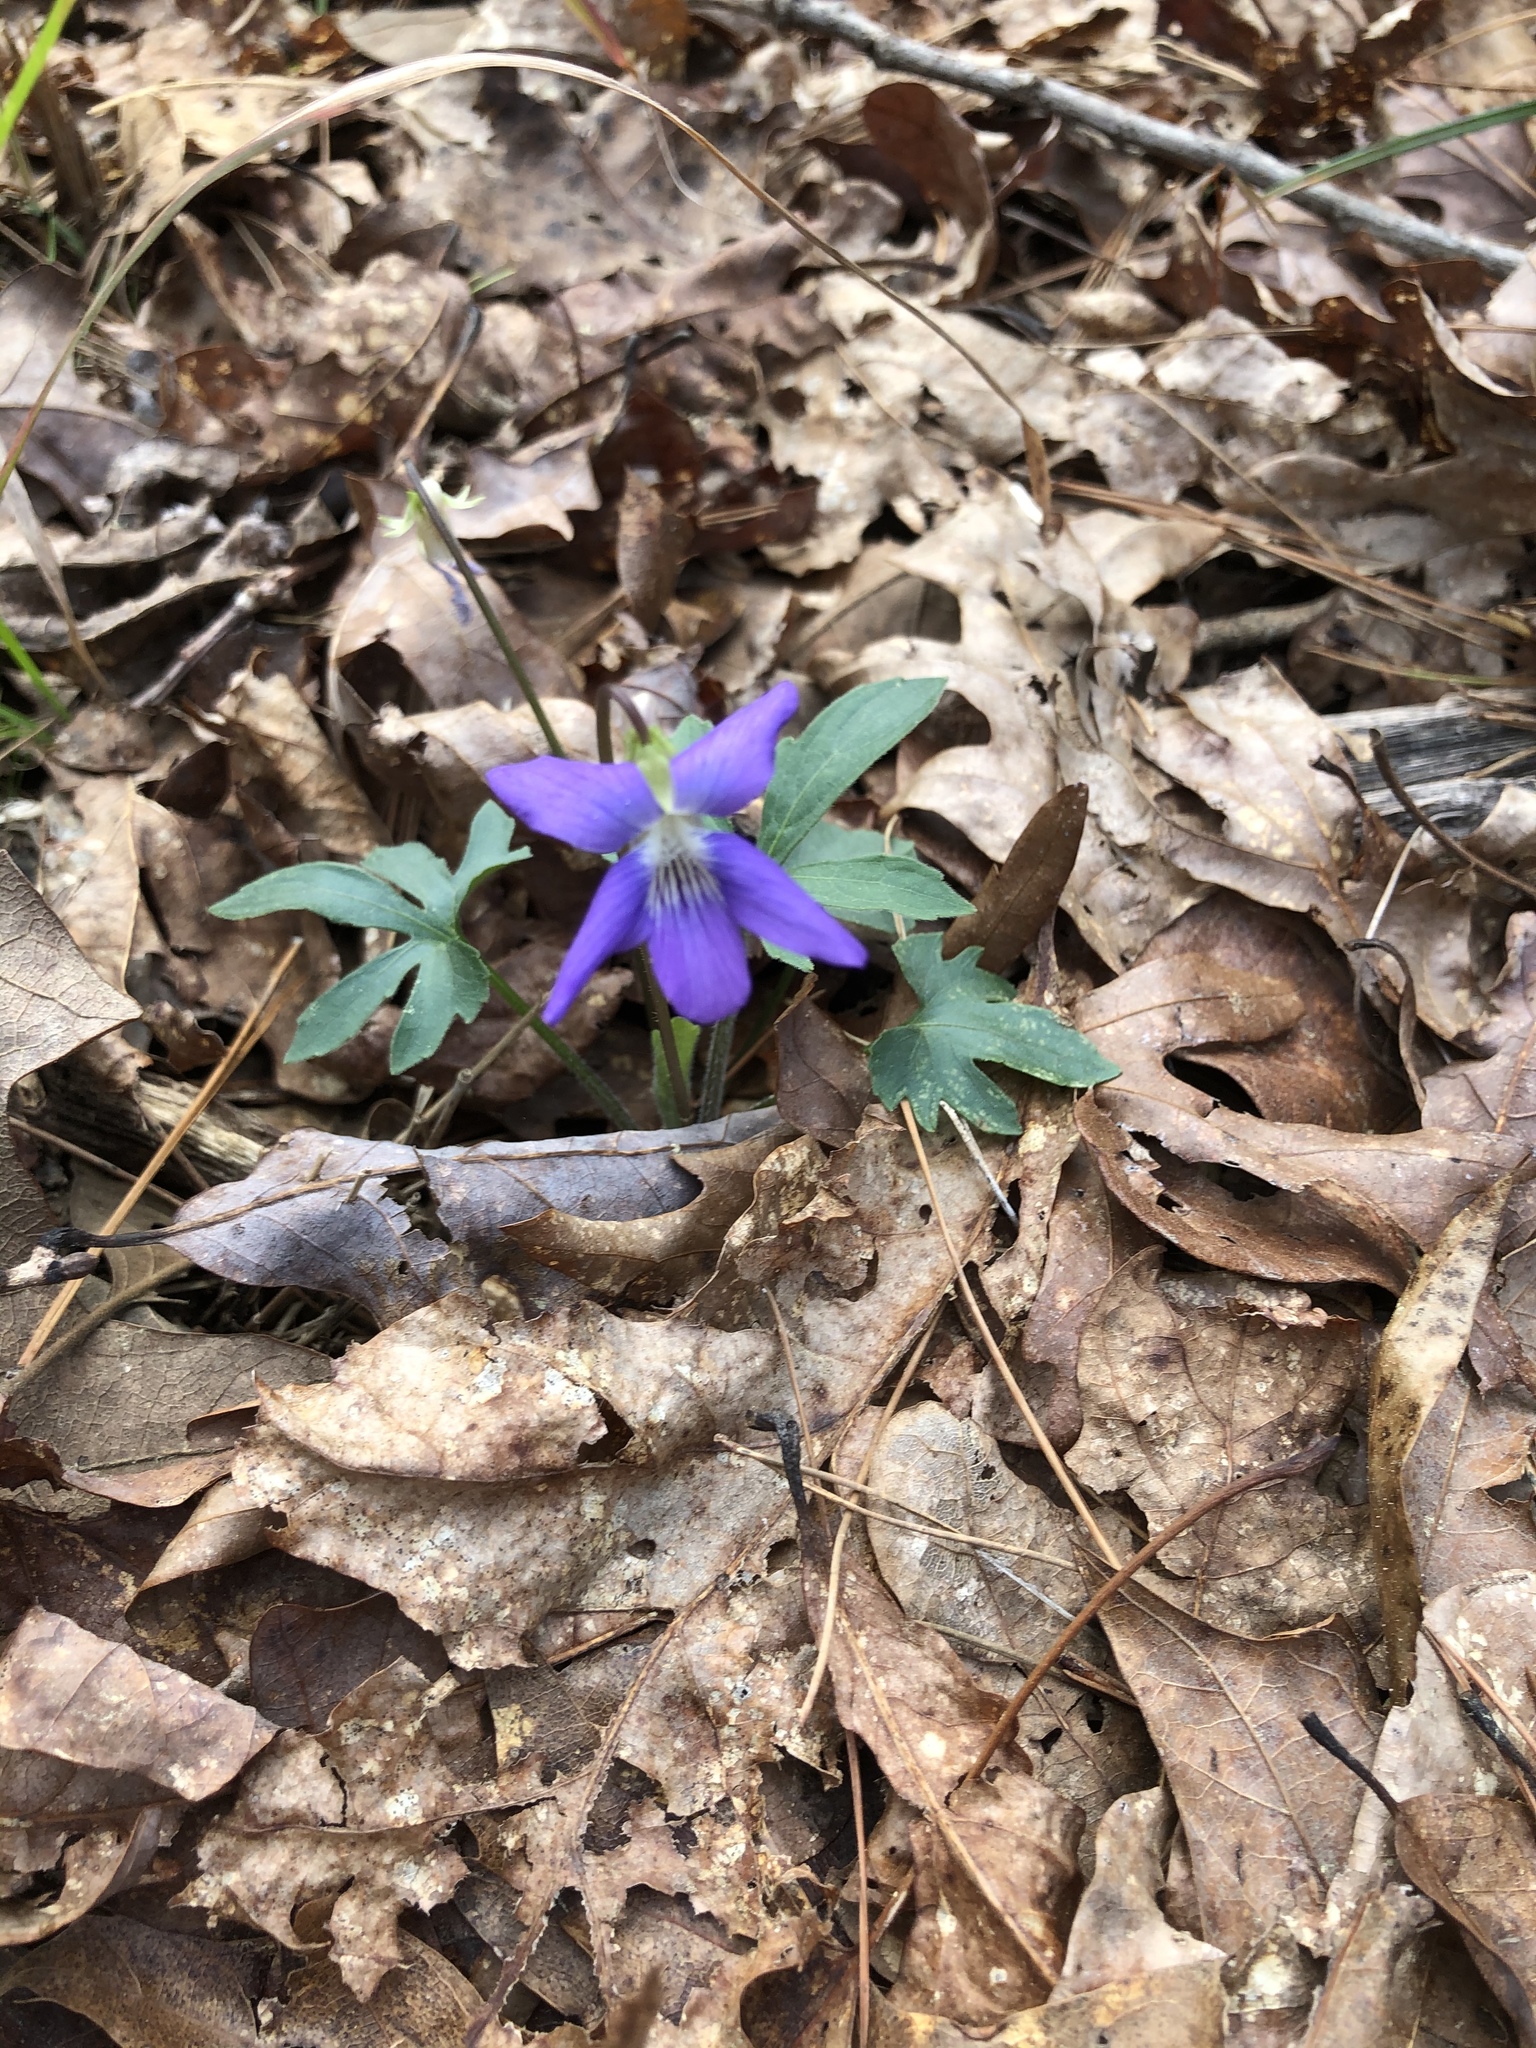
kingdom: Plantae
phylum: Tracheophyta
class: Magnoliopsida
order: Malpighiales
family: Violaceae
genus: Viola
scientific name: Viola palmata
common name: Early blue violet
